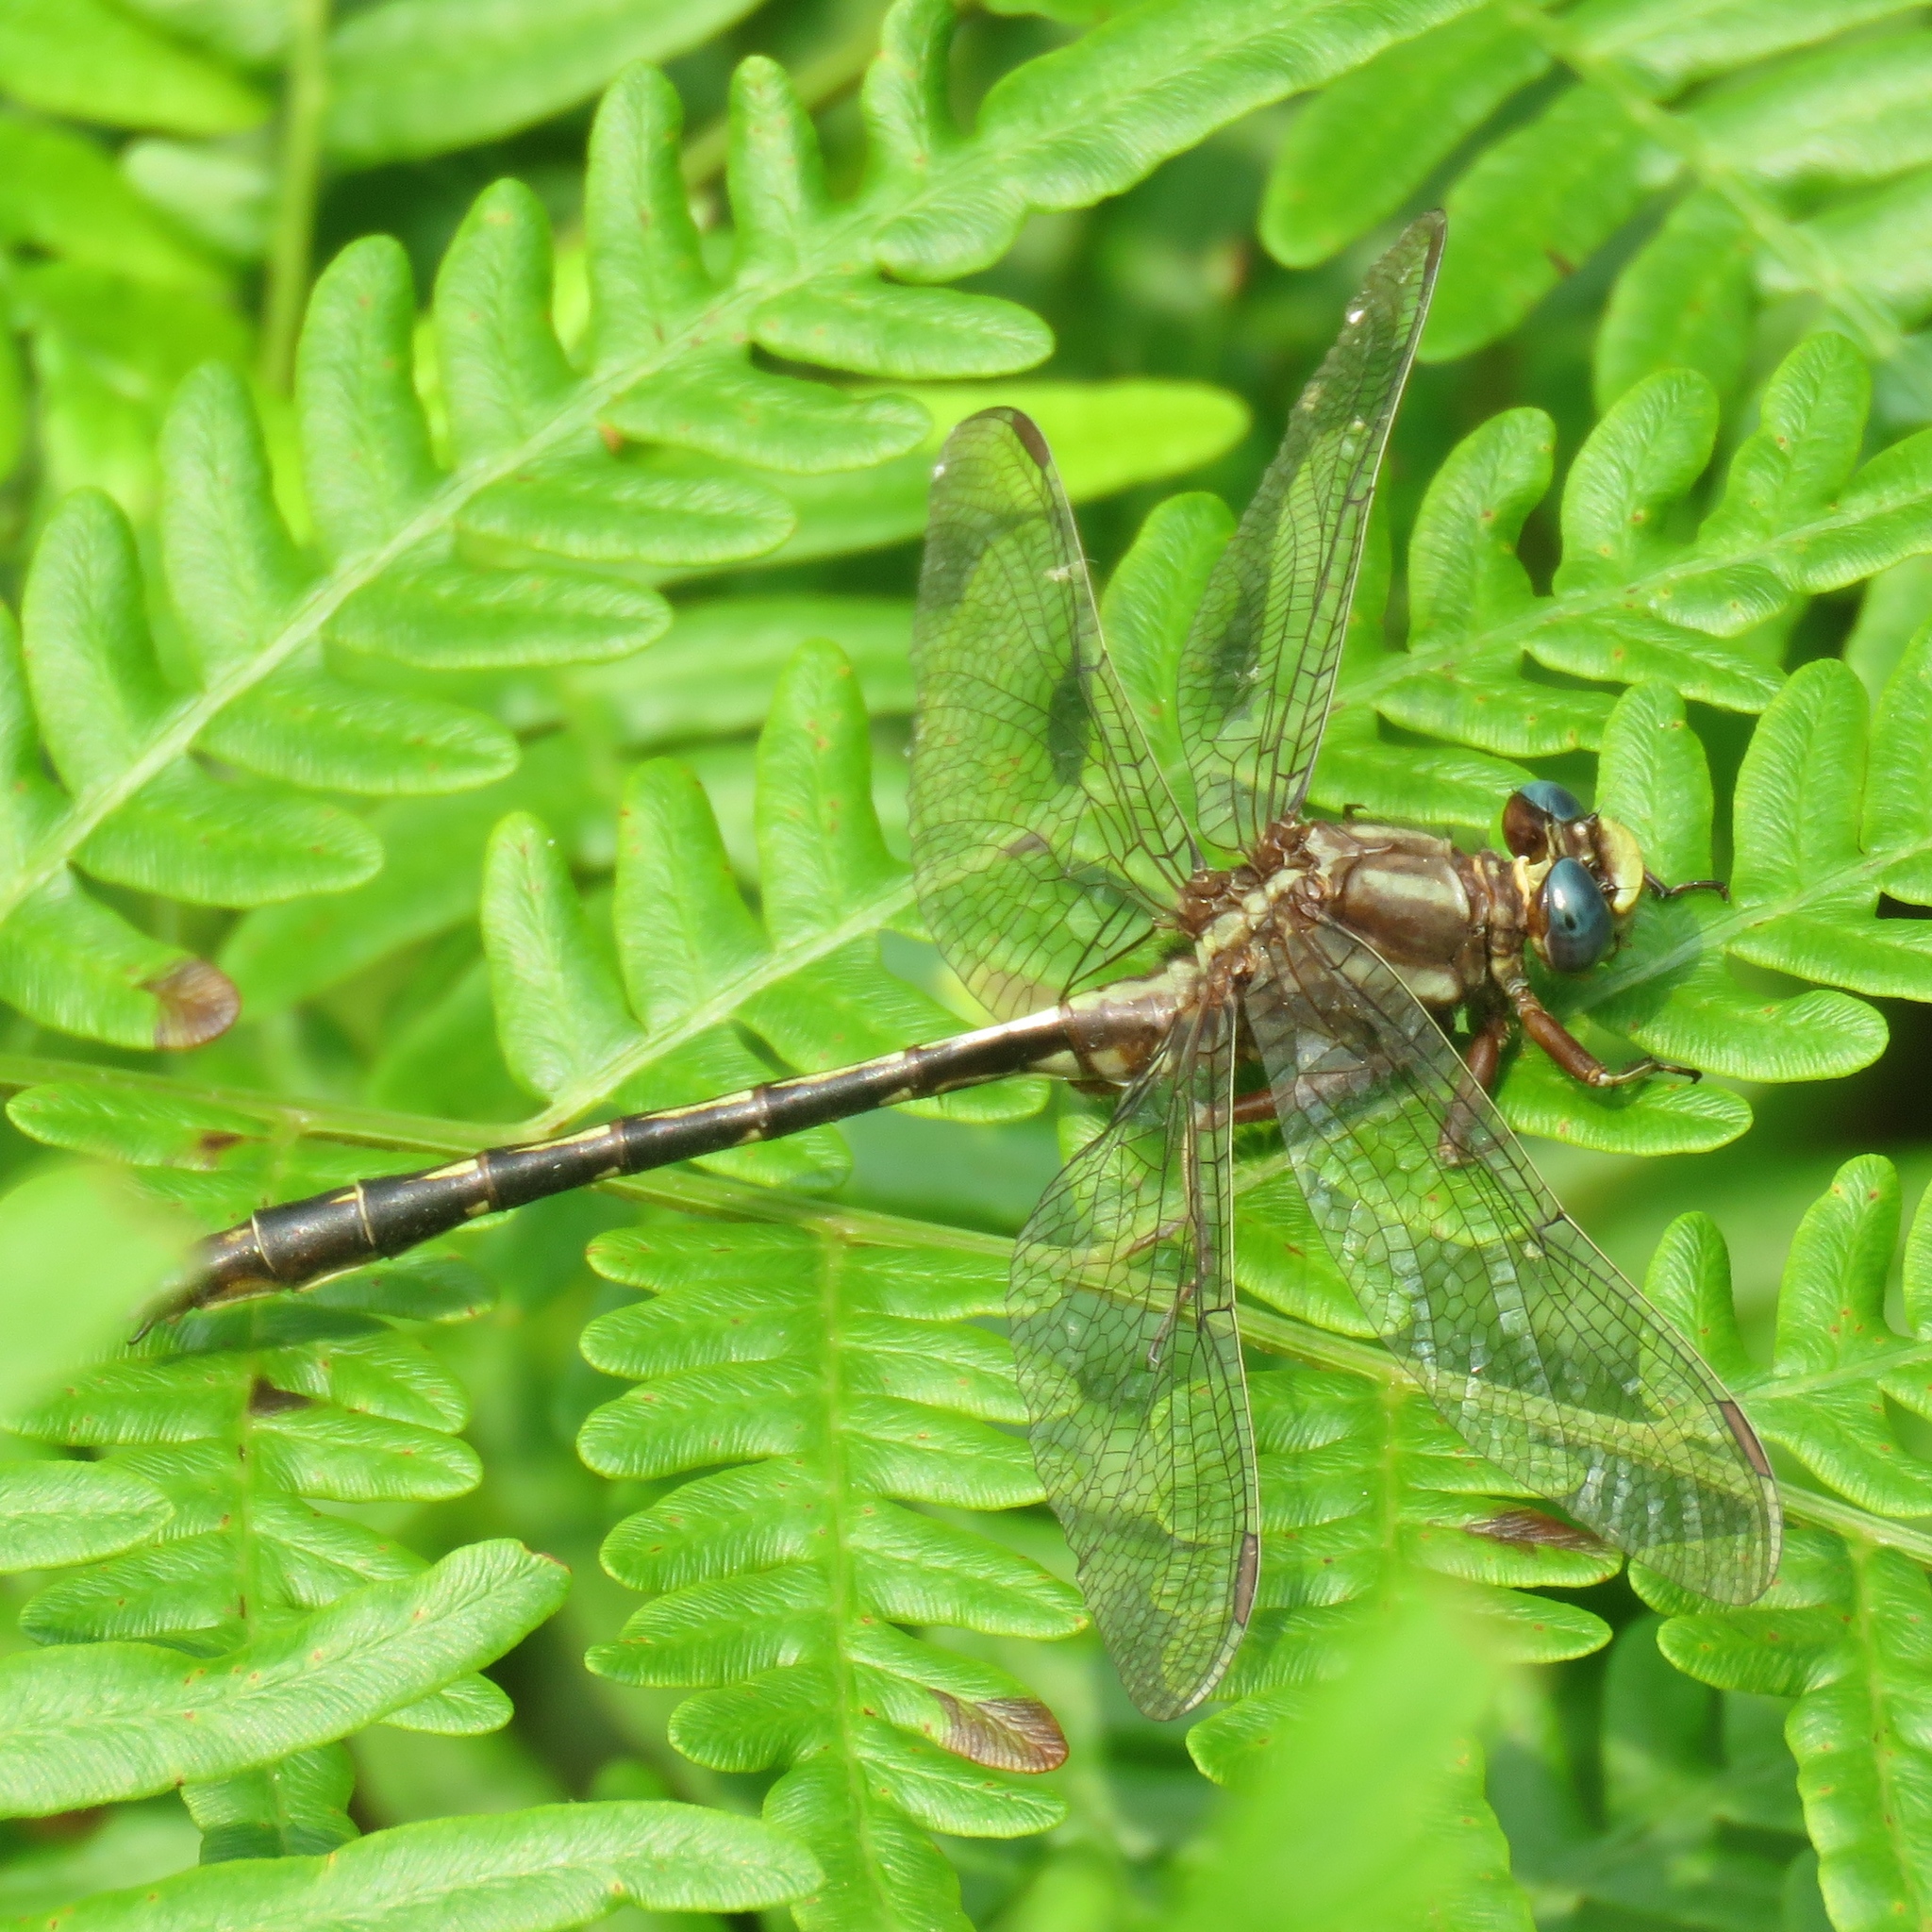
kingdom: Animalia
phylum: Arthropoda
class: Insecta
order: Odonata
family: Gomphidae
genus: Phanogomphus
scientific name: Phanogomphus lividus
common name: Ashy clubtail
